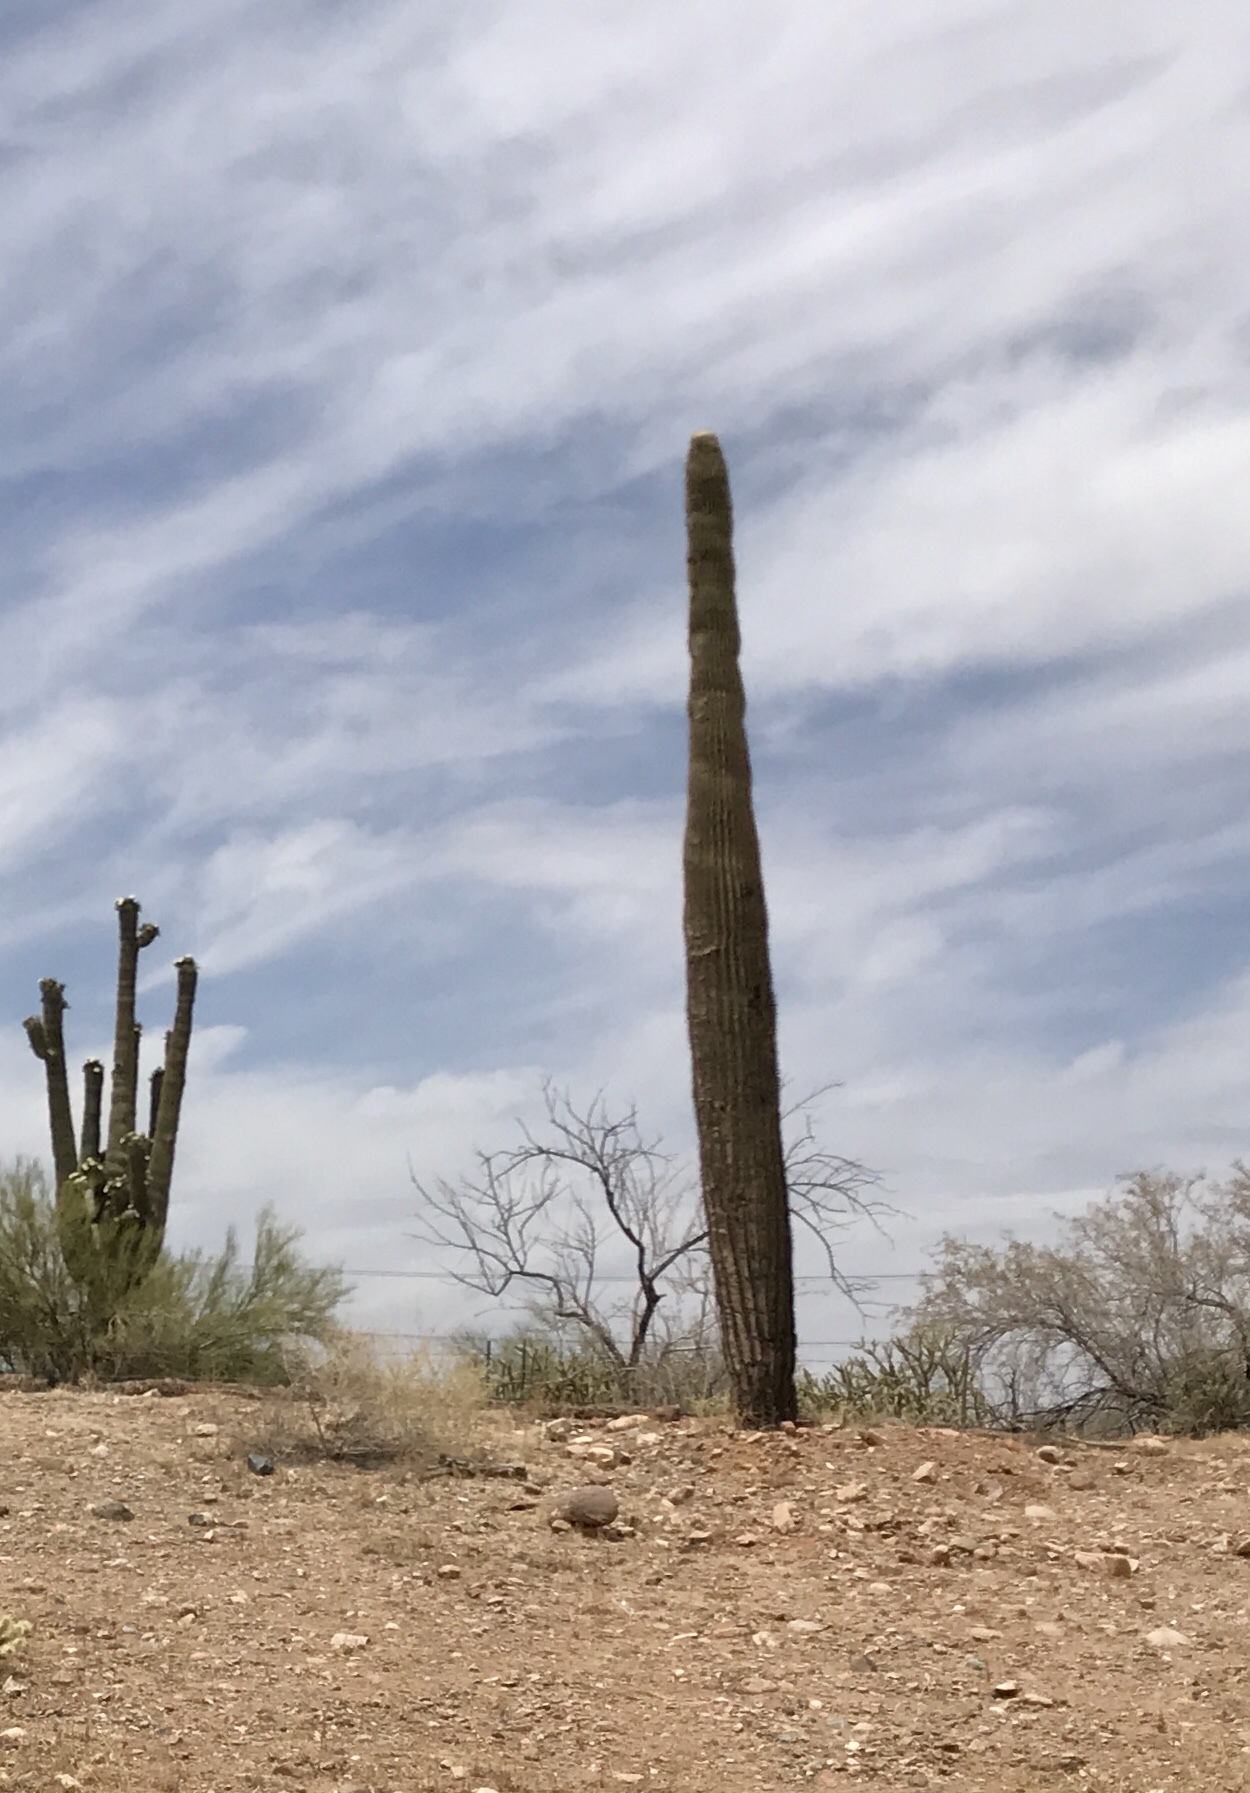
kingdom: Plantae
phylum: Tracheophyta
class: Magnoliopsida
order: Caryophyllales
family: Cactaceae
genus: Carnegiea
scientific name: Carnegiea gigantea
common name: Saguaro
